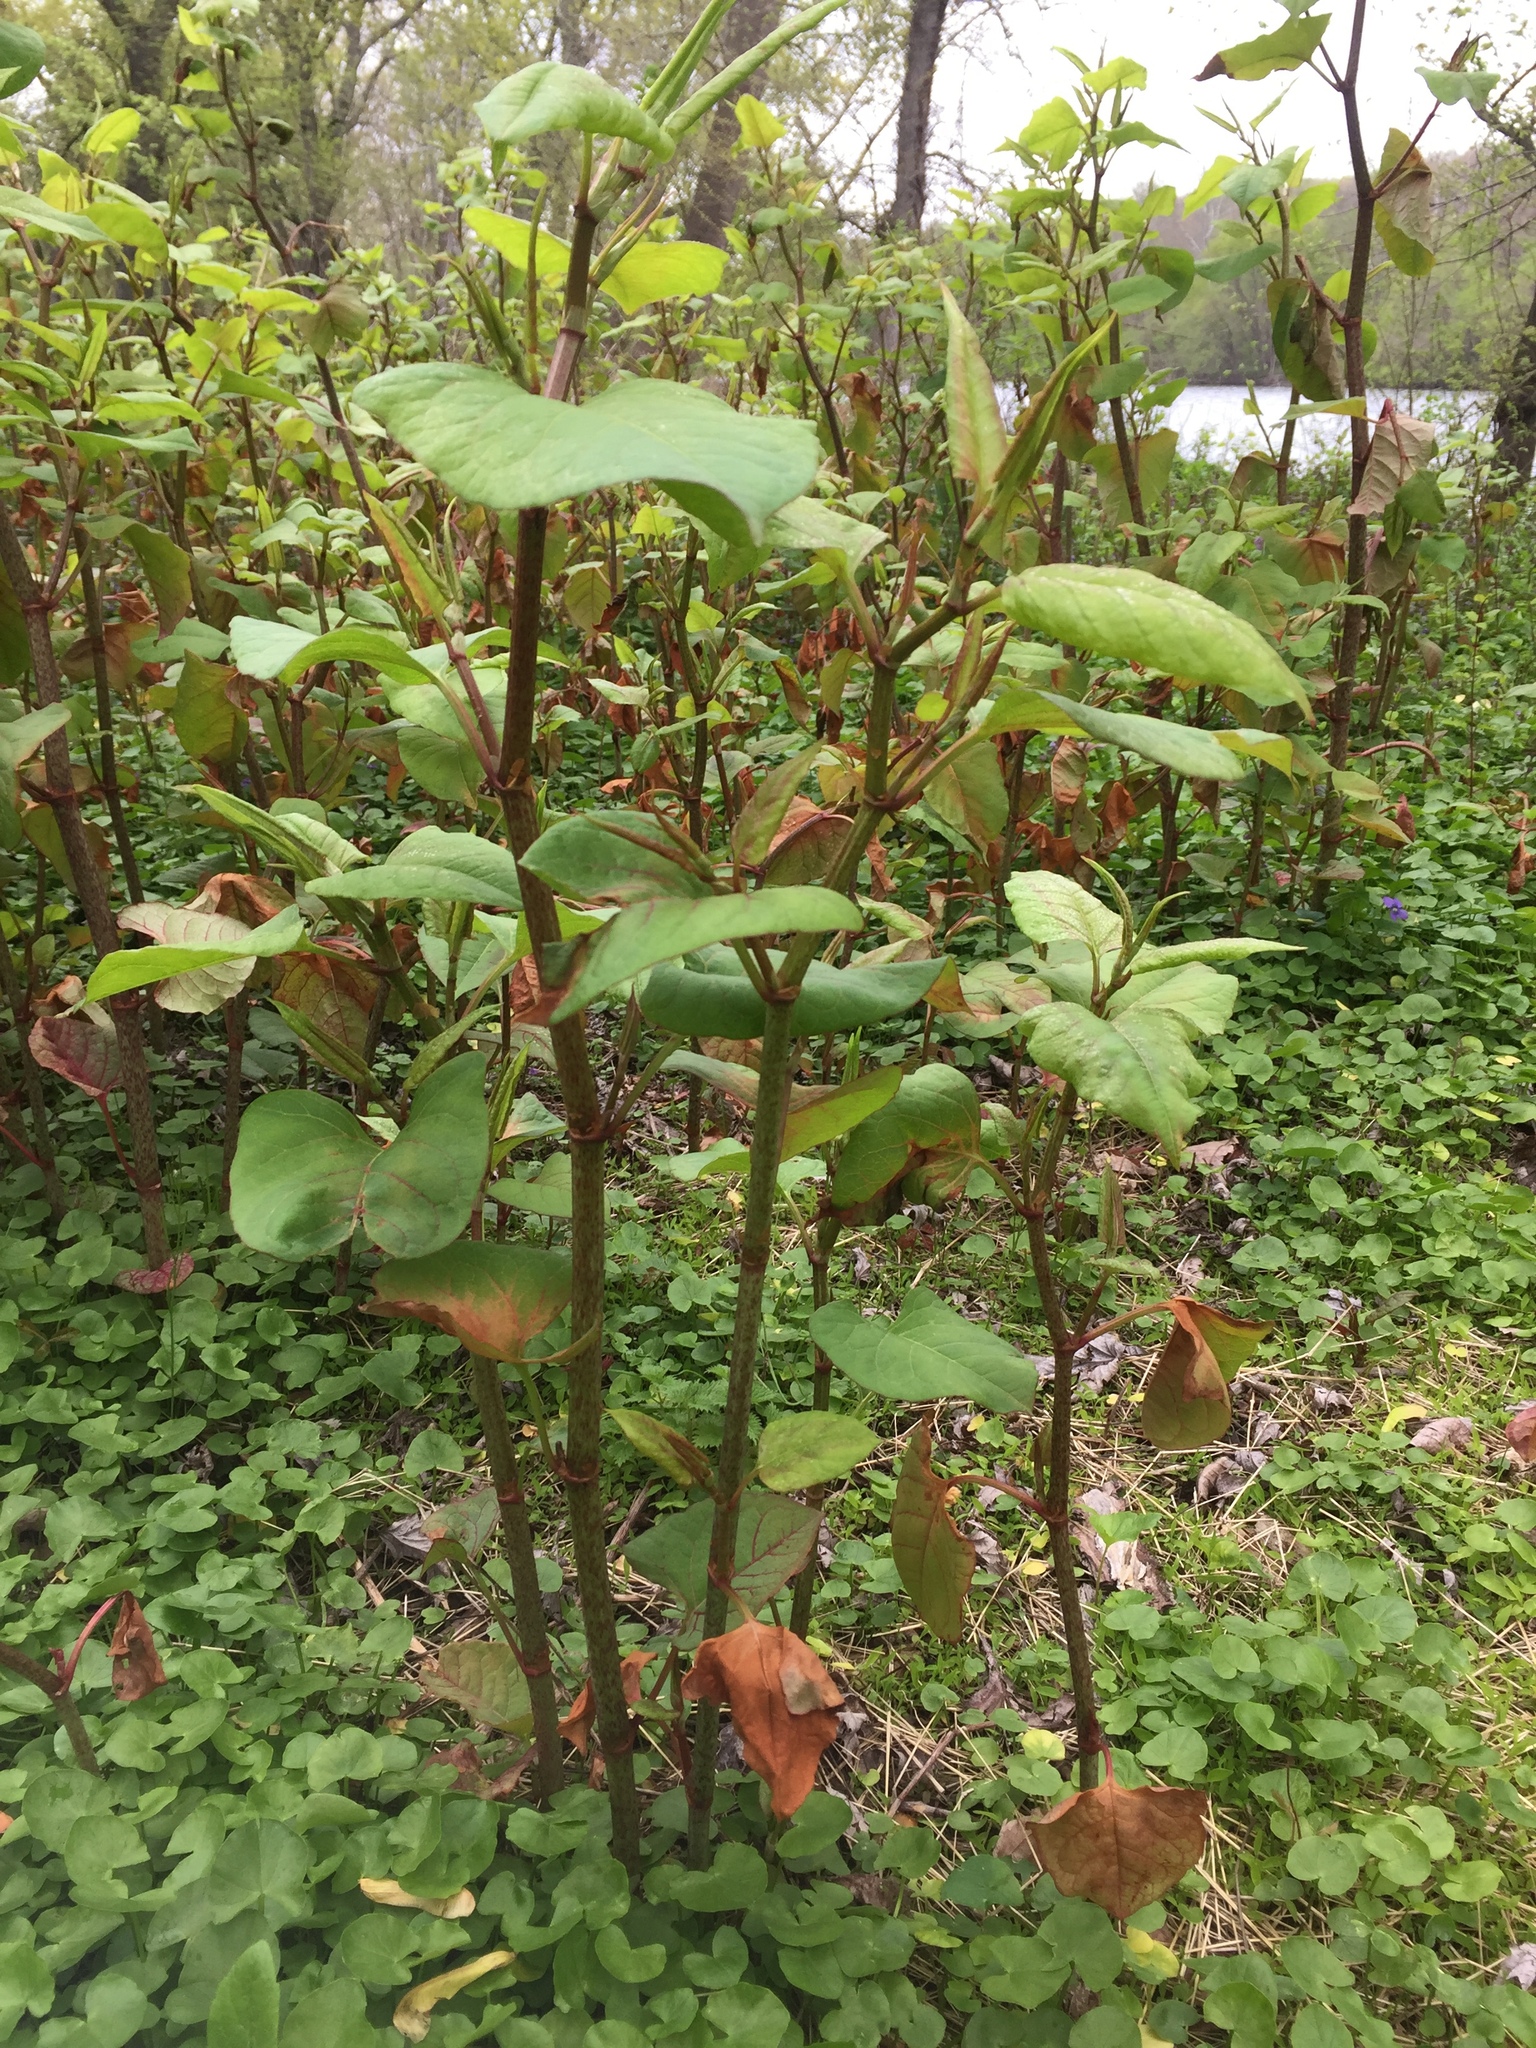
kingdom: Plantae
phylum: Tracheophyta
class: Magnoliopsida
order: Caryophyllales
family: Polygonaceae
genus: Reynoutria
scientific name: Reynoutria japonica
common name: Japanese knotweed
